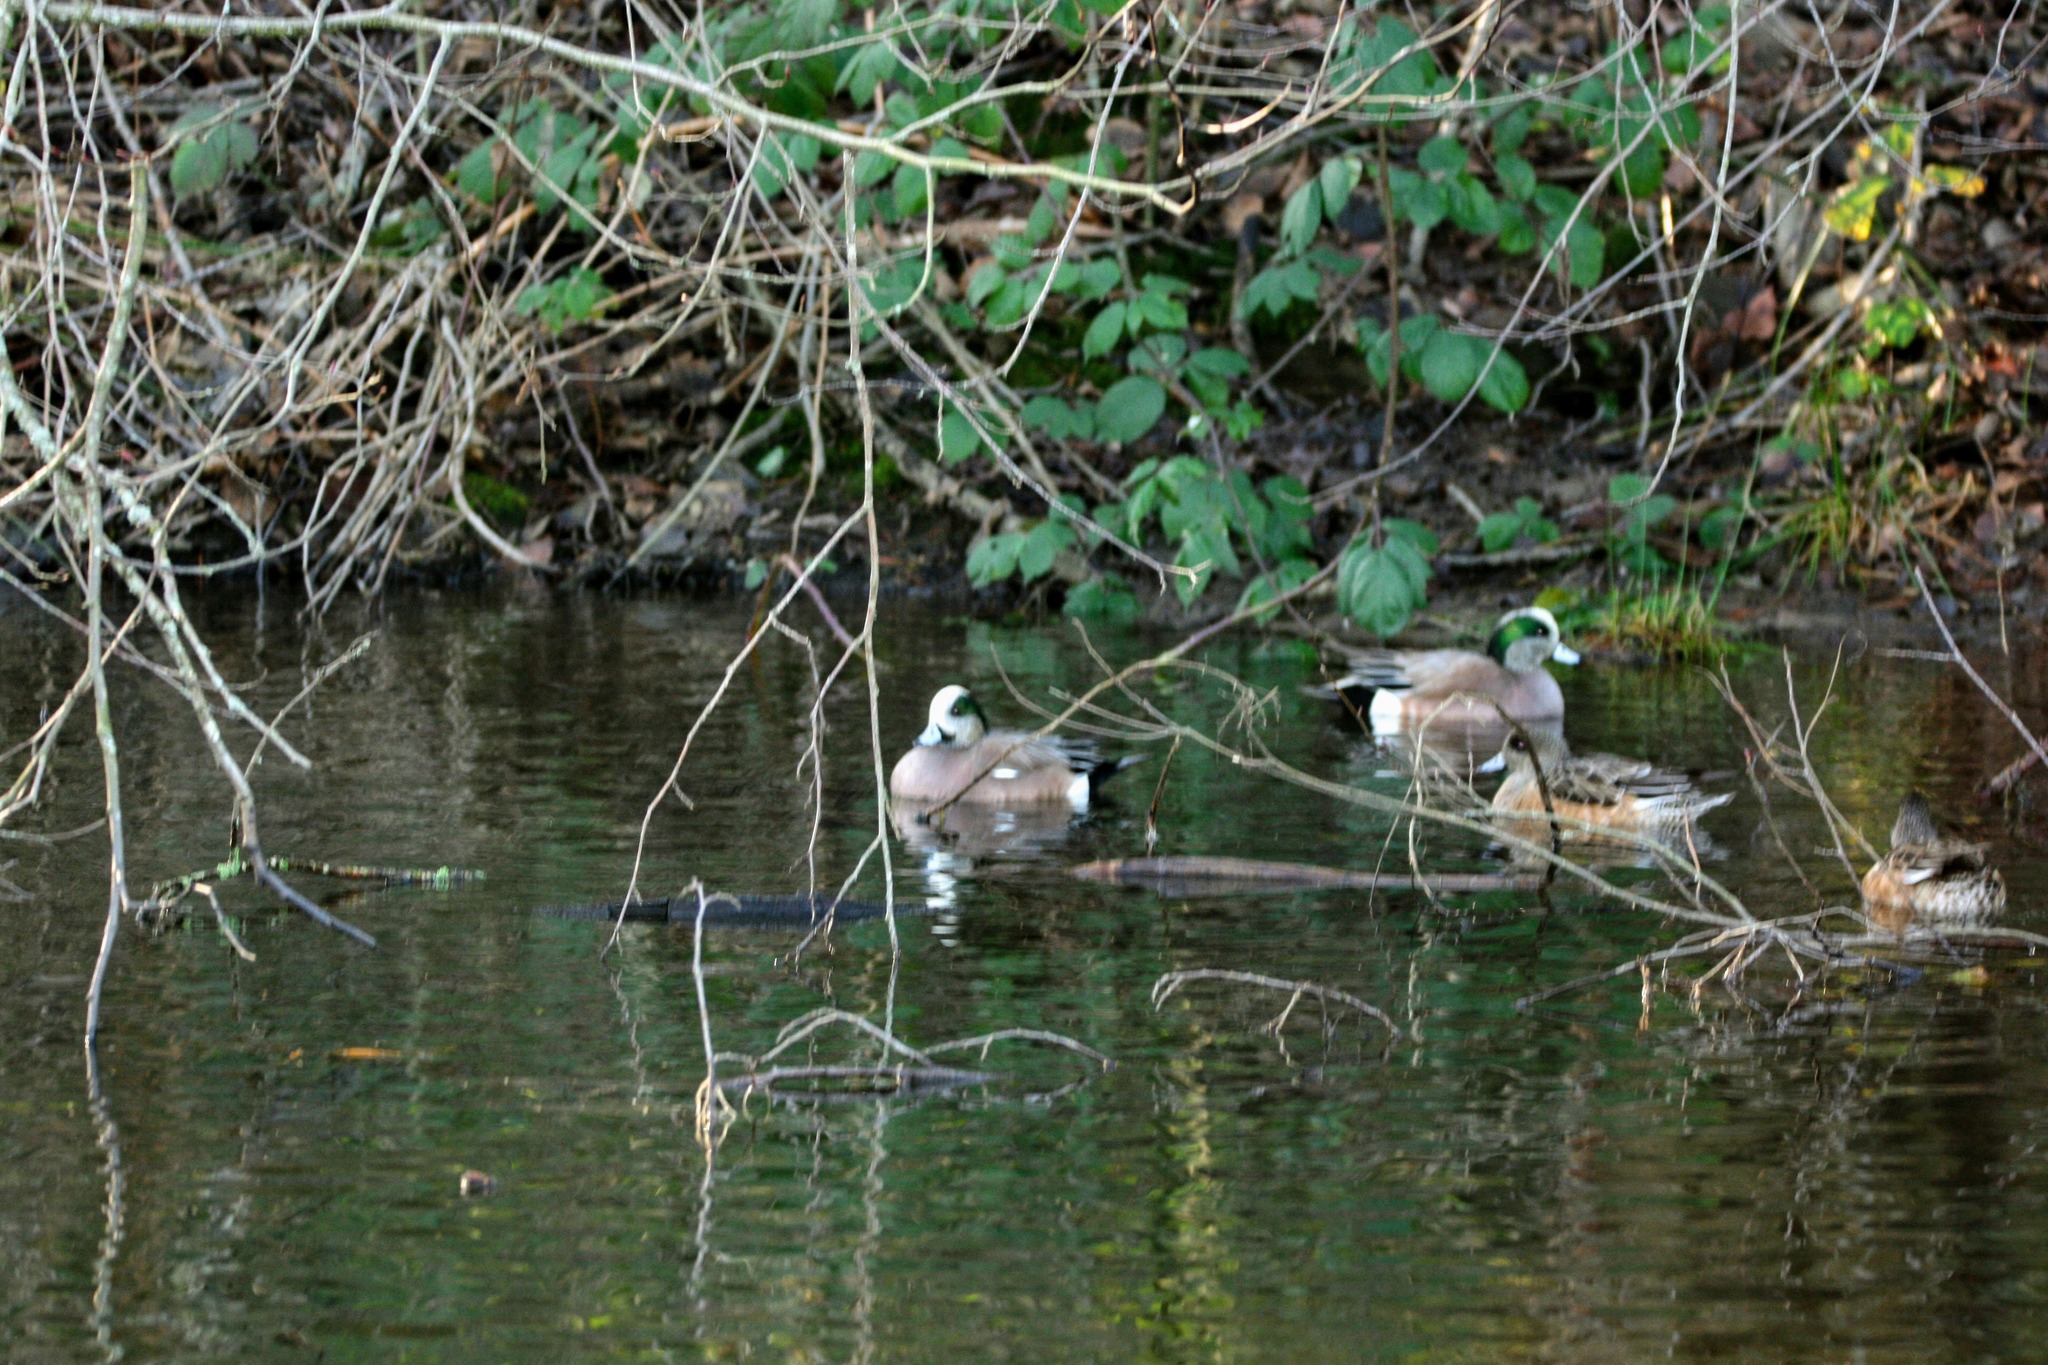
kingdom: Animalia
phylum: Chordata
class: Aves
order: Anseriformes
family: Anatidae
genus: Mareca
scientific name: Mareca americana
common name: American wigeon
